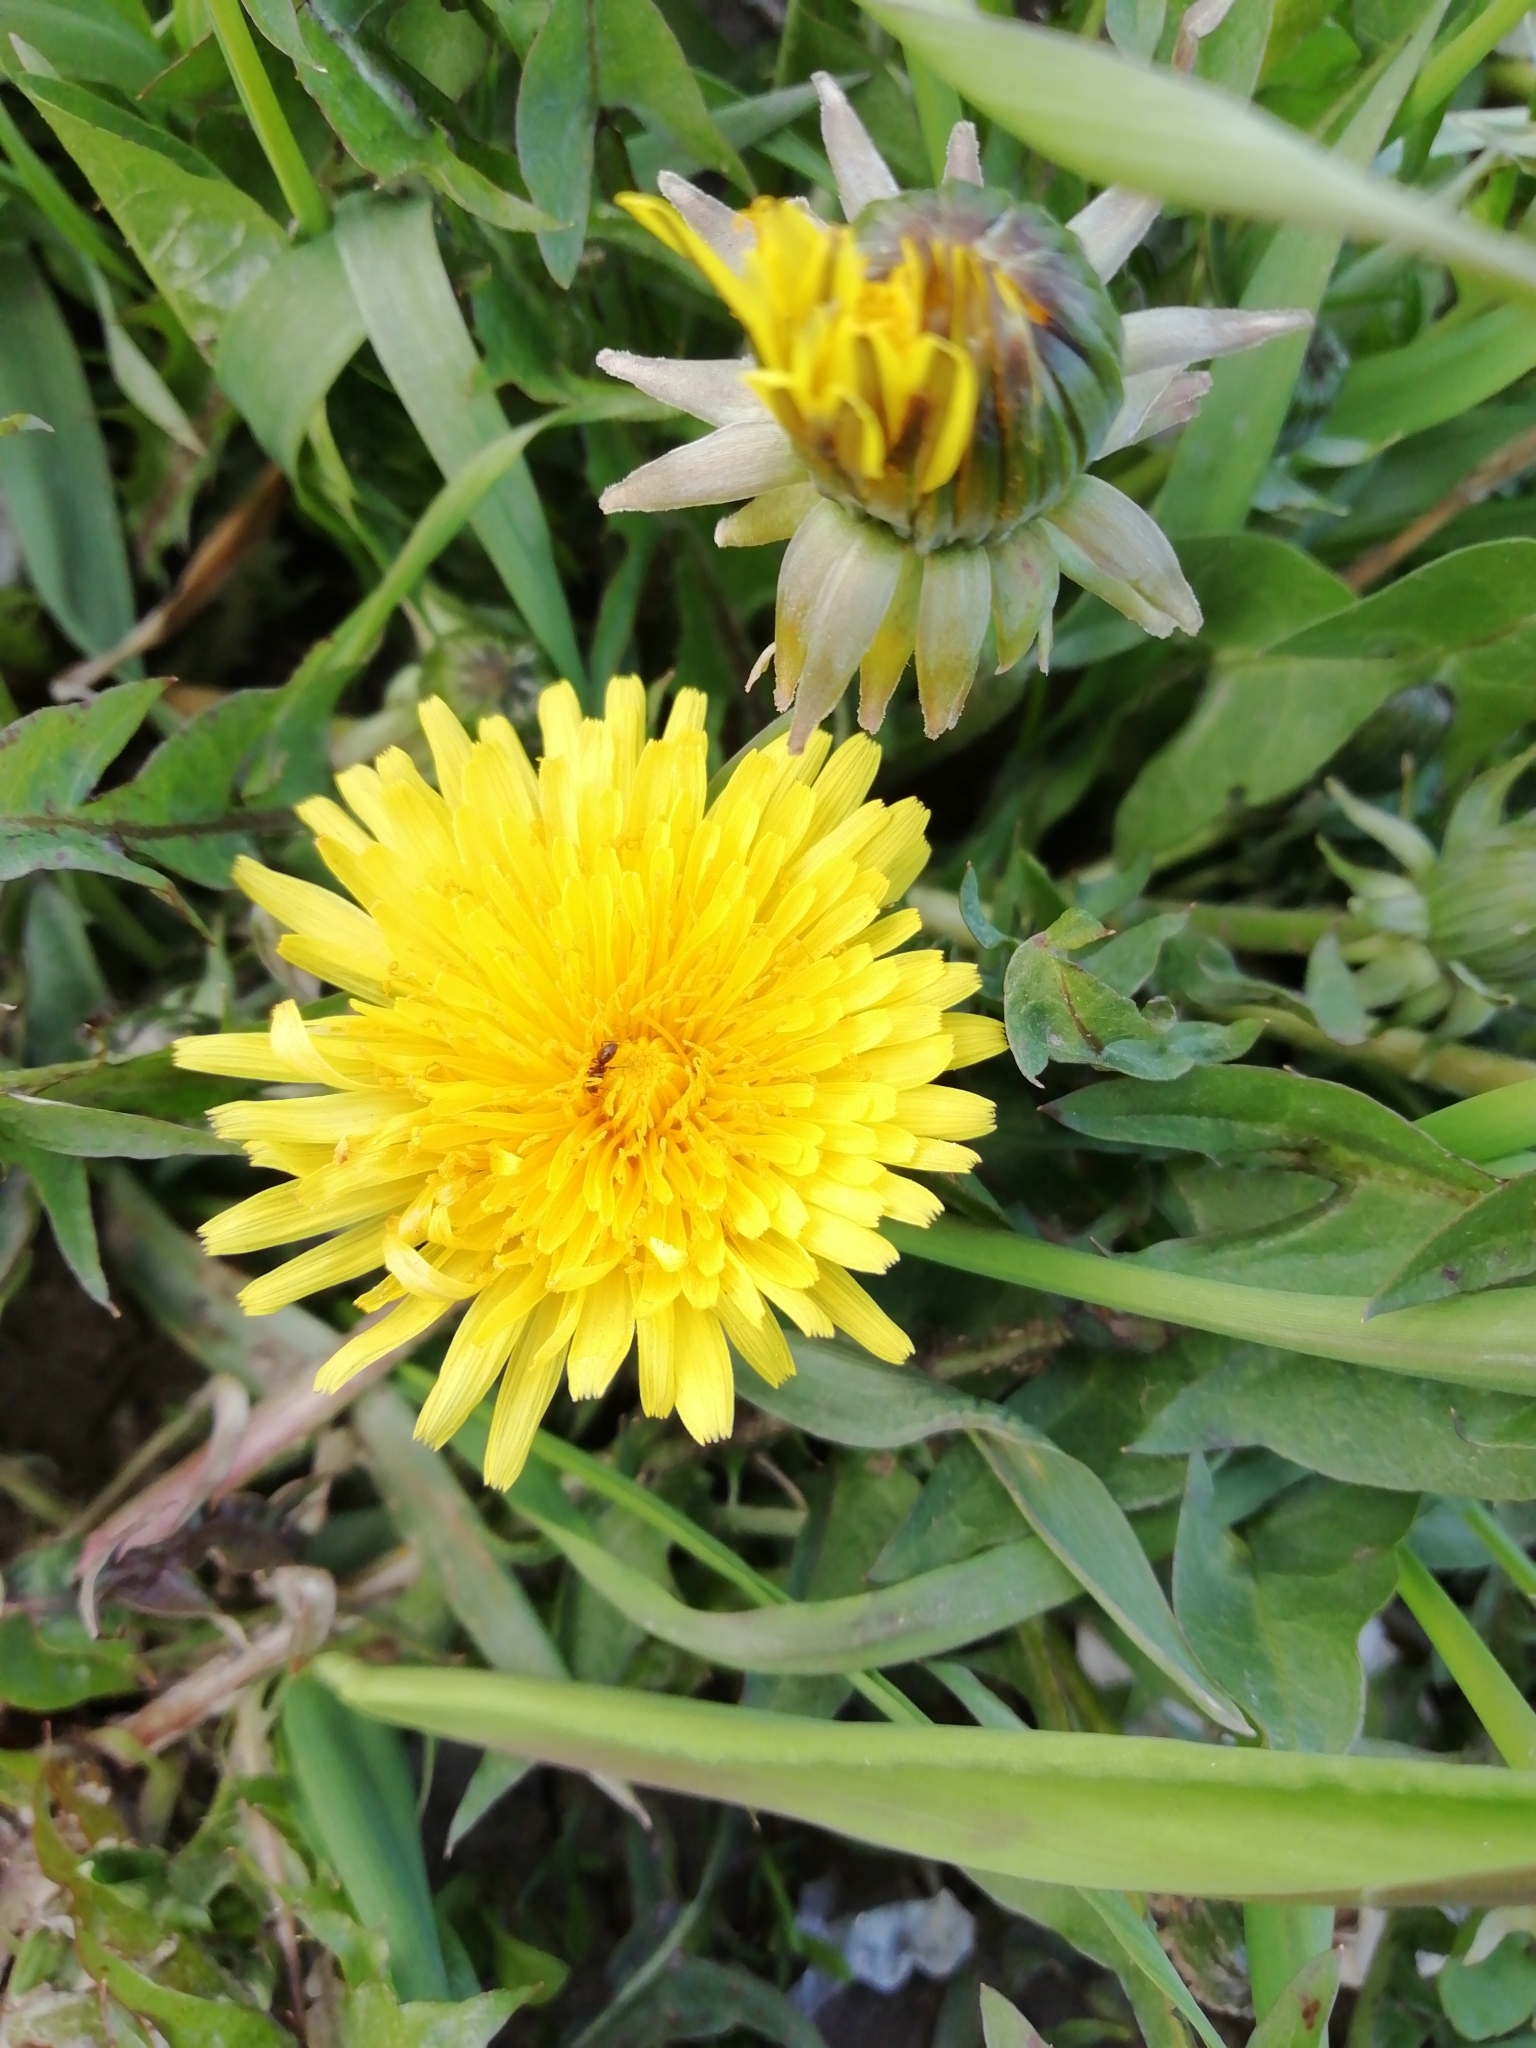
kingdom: Plantae
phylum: Tracheophyta
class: Magnoliopsida
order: Asterales
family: Asteraceae
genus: Taraxacum
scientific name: Taraxacum officinale
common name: Common dandelion
